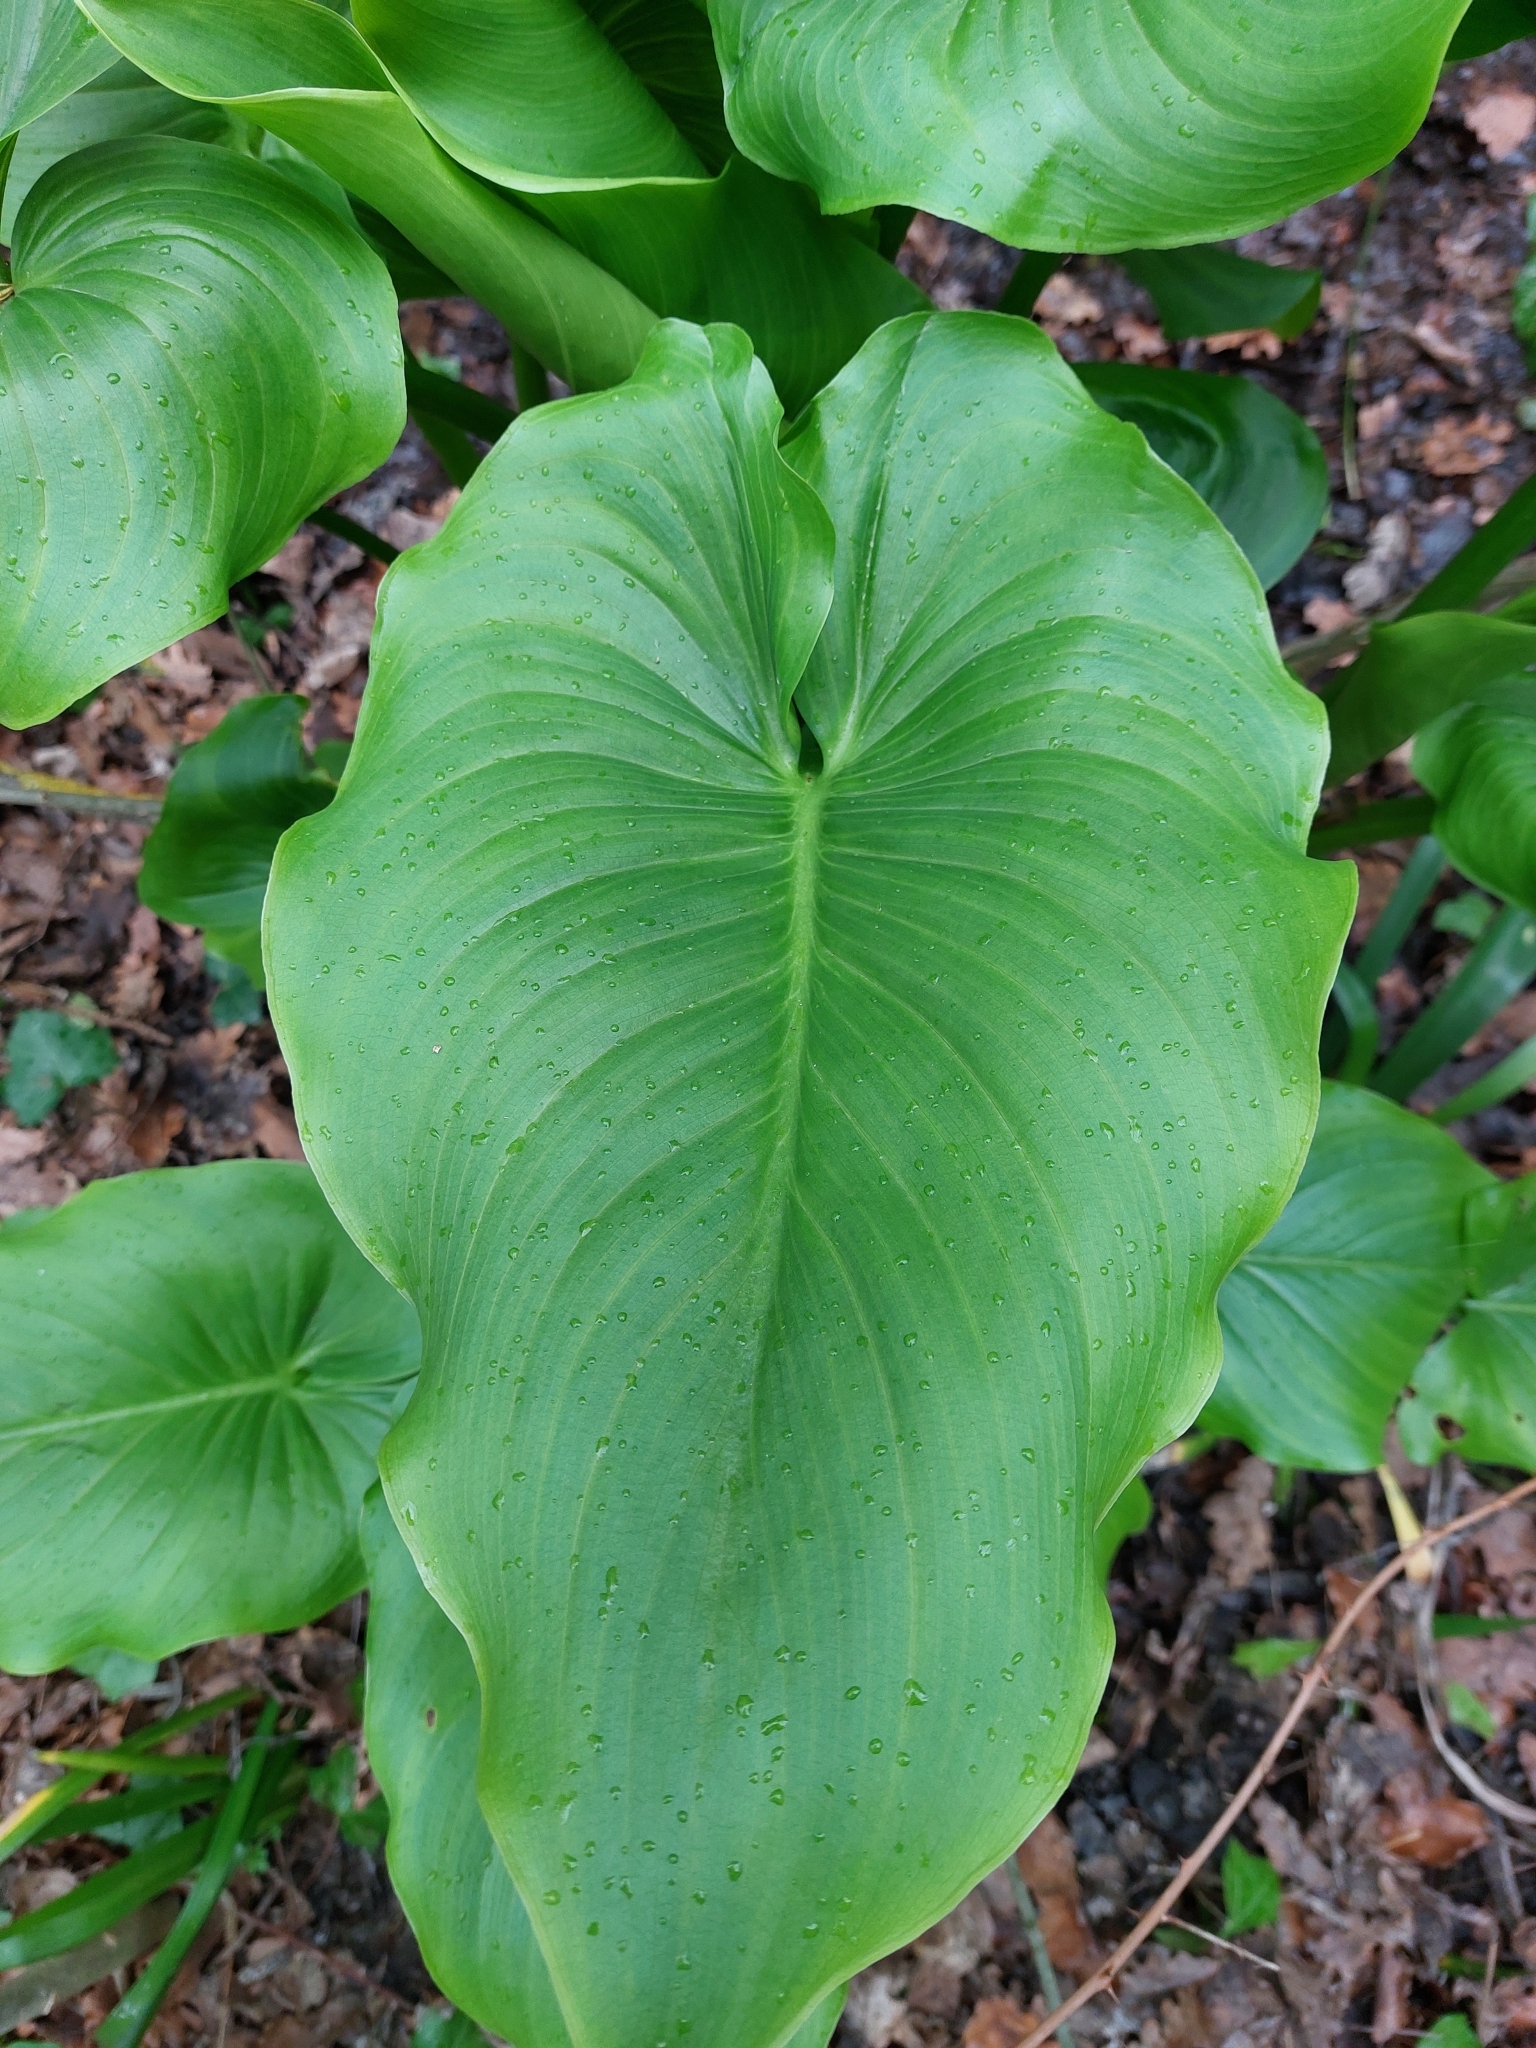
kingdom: Plantae
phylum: Tracheophyta
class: Liliopsida
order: Alismatales
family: Araceae
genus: Zantedeschia
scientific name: Zantedeschia aethiopica
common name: Altar-lily
